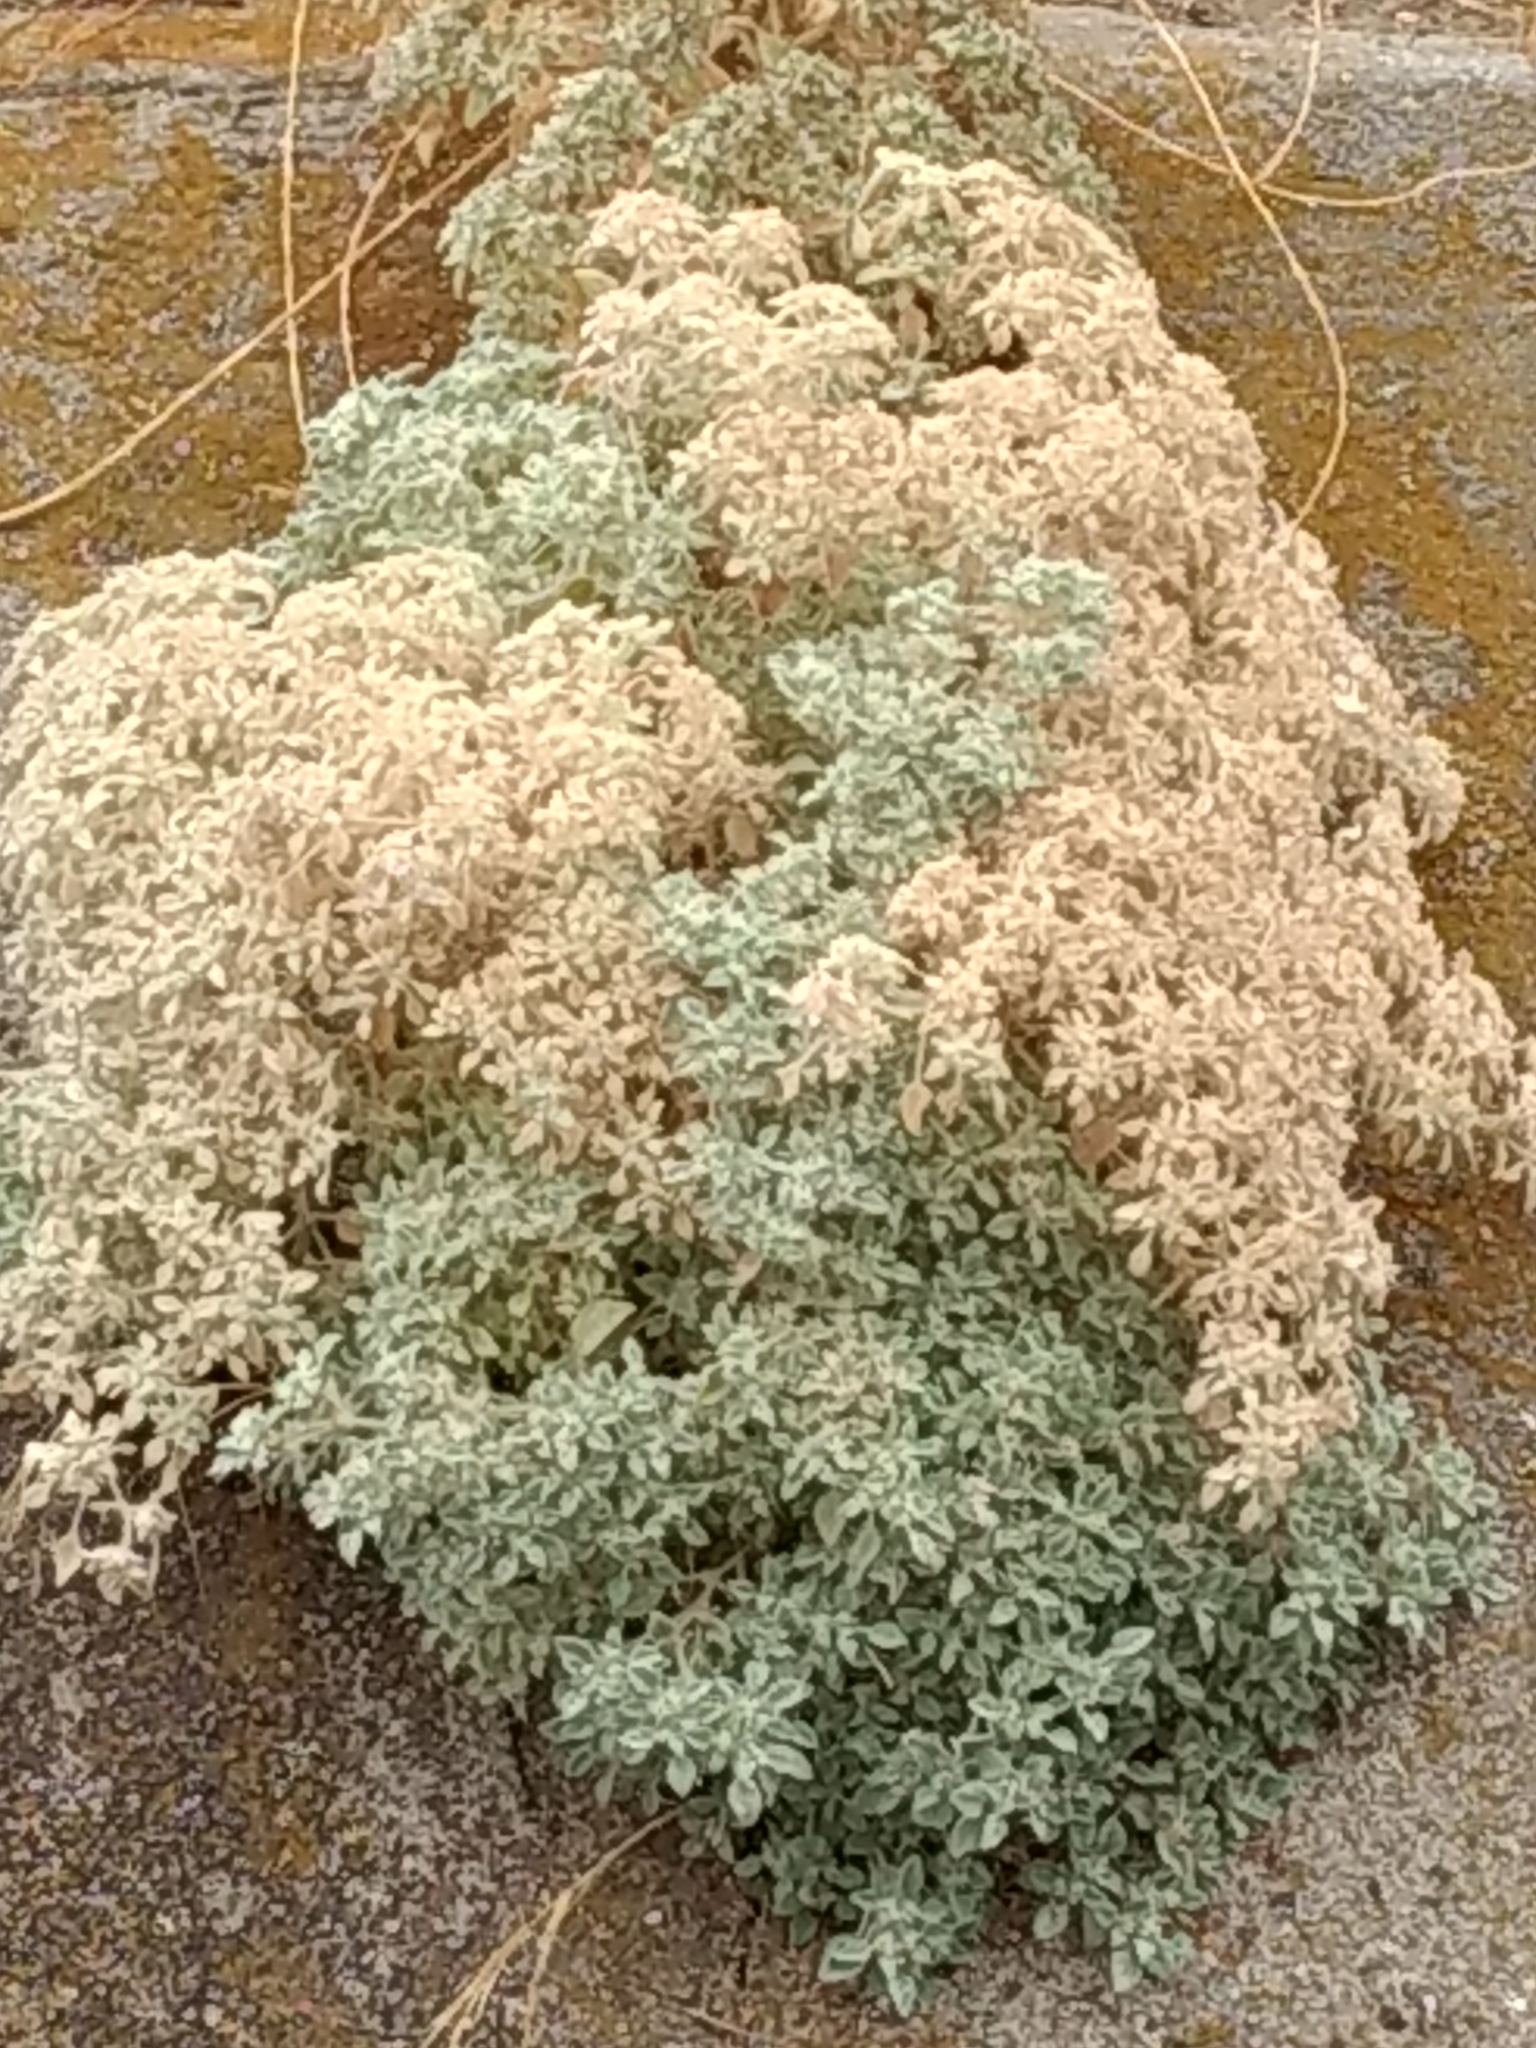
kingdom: Plantae
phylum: Tracheophyta
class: Magnoliopsida
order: Malpighiales
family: Euphorbiaceae
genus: Croton
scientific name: Croton setiger
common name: Dove weed
